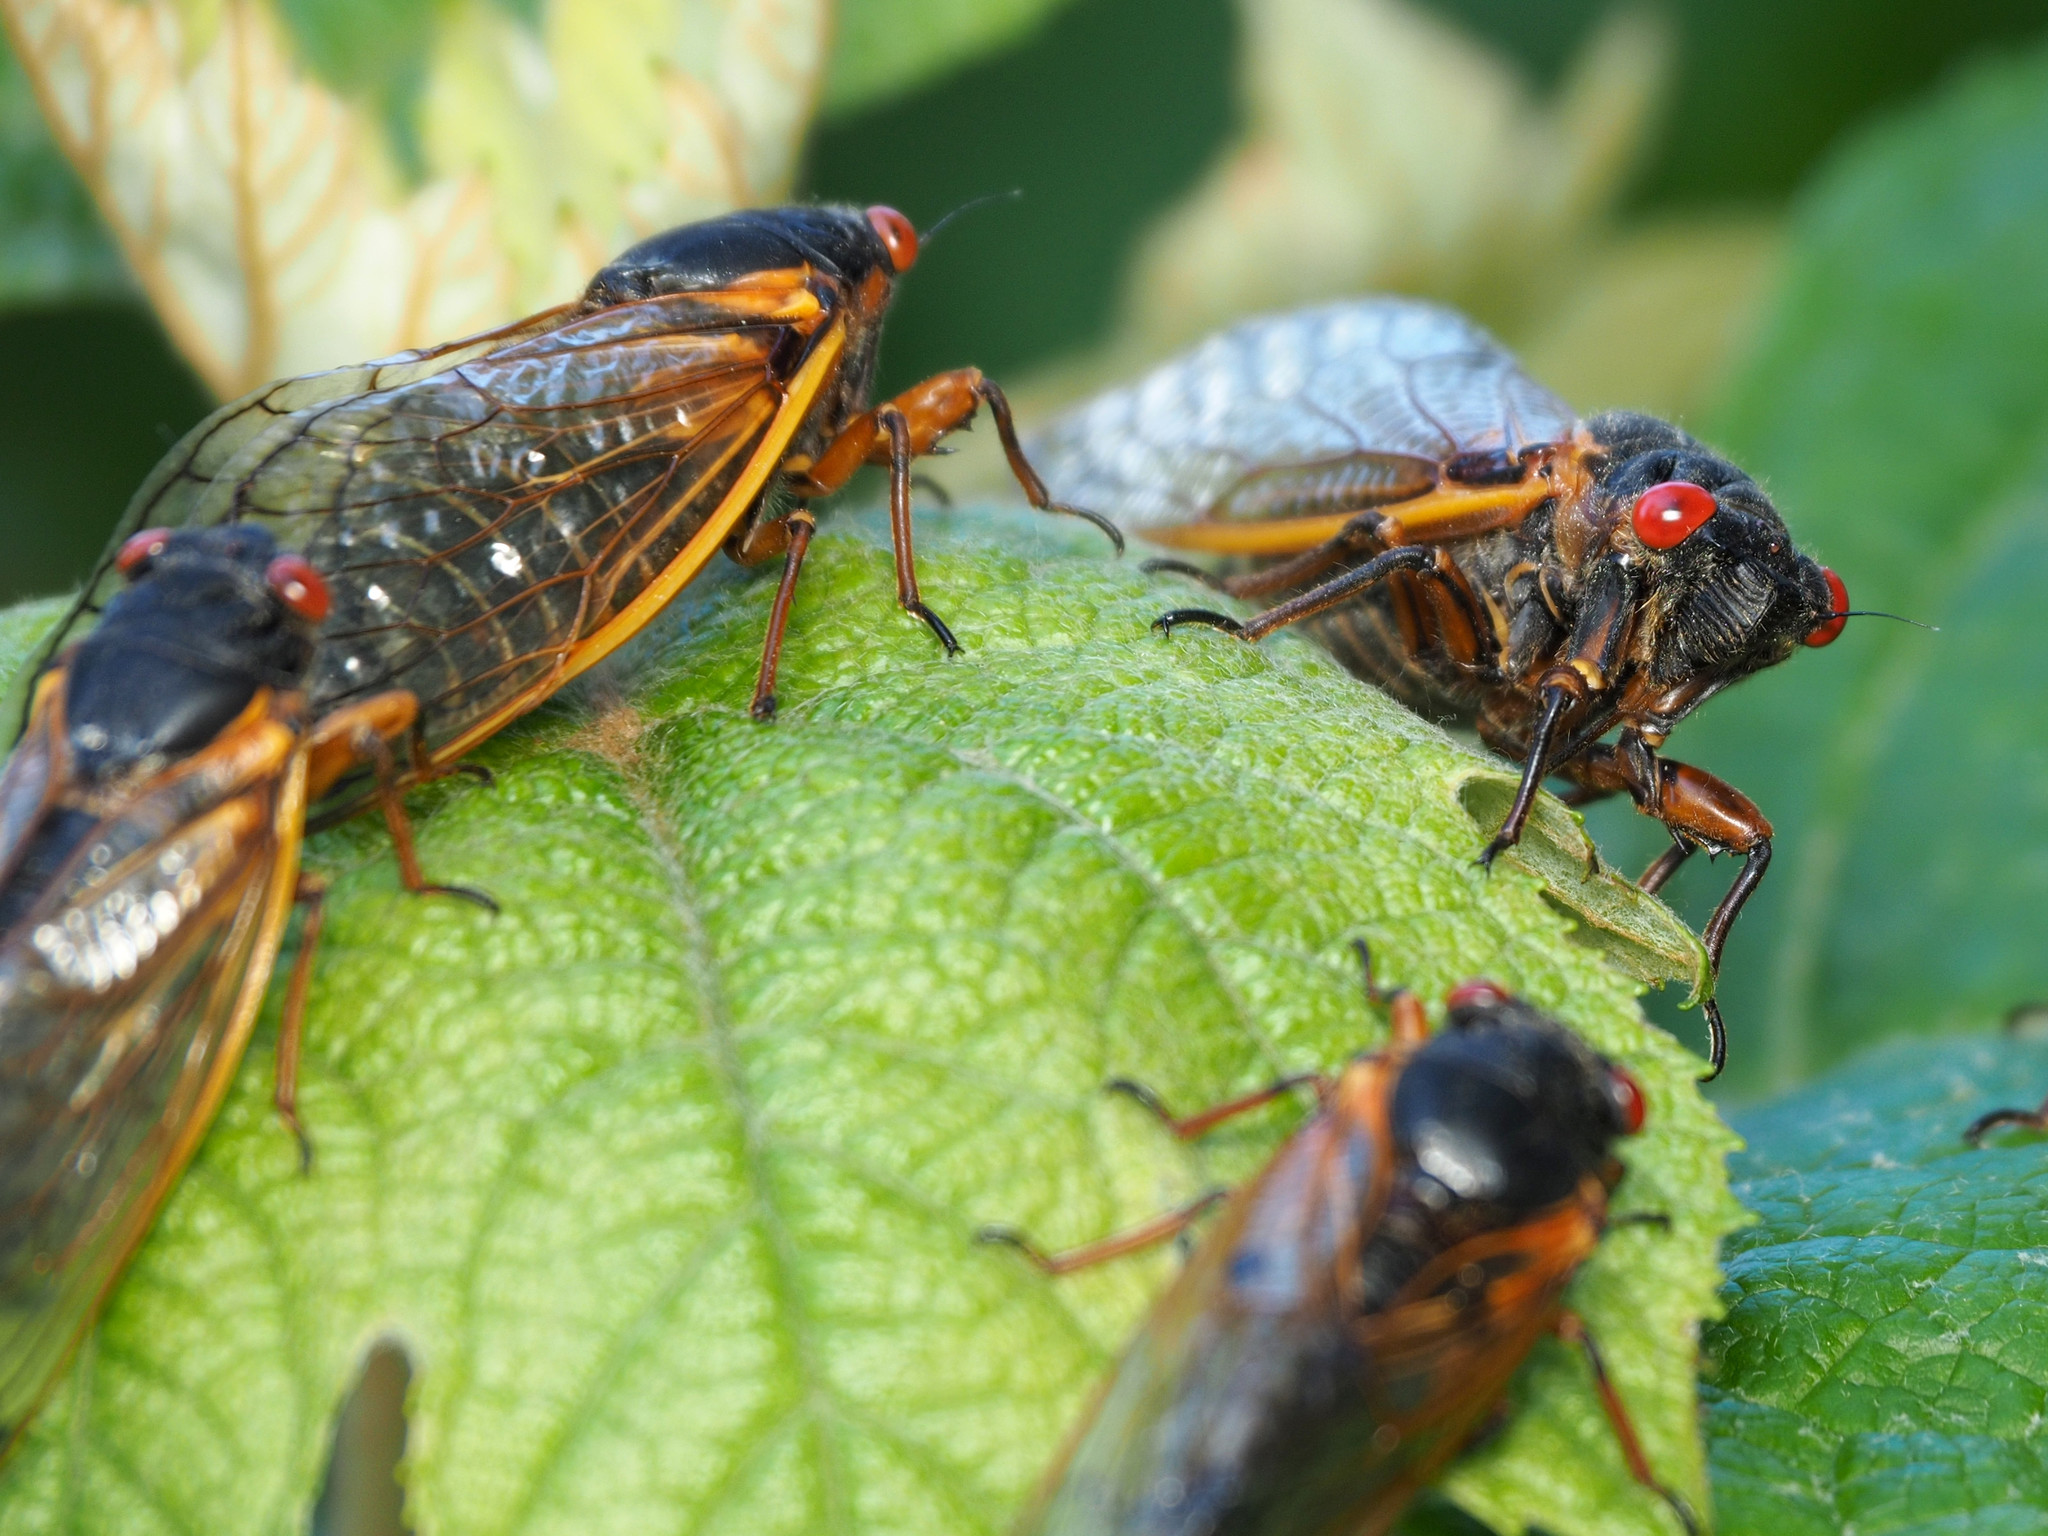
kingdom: Animalia
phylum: Arthropoda
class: Insecta
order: Hemiptera
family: Cicadidae
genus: Magicicada
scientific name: Magicicada septendecim
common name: Periodical cicada
